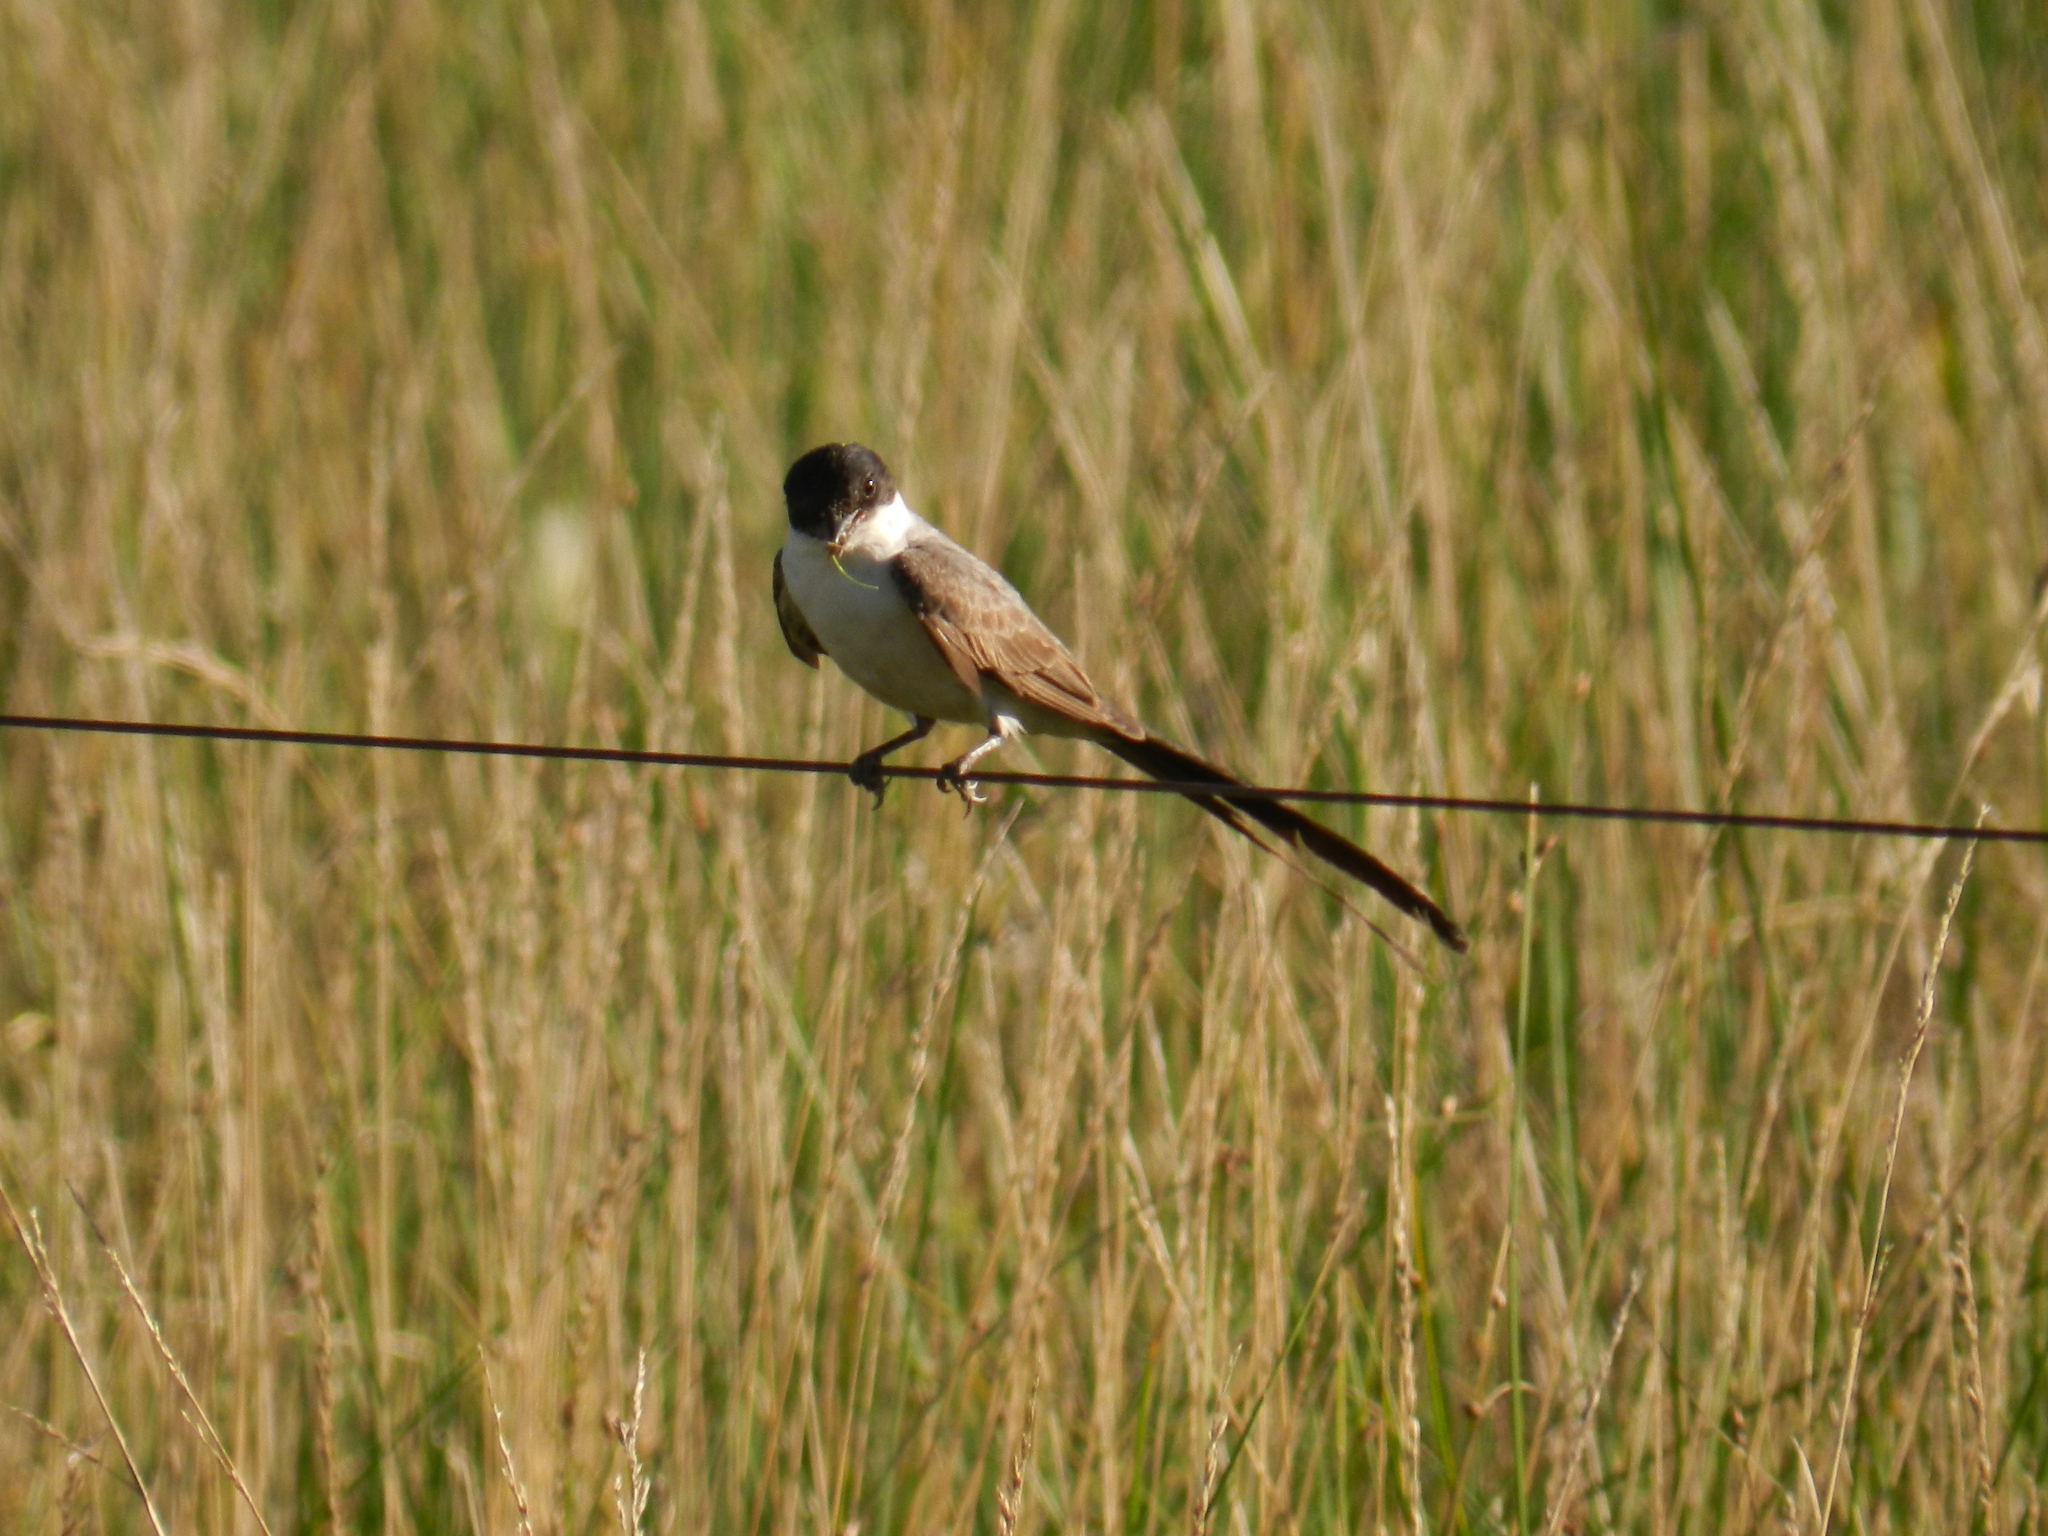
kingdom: Animalia
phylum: Chordata
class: Aves
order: Passeriformes
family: Tyrannidae
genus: Tyrannus
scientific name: Tyrannus savana
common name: Fork-tailed flycatcher
